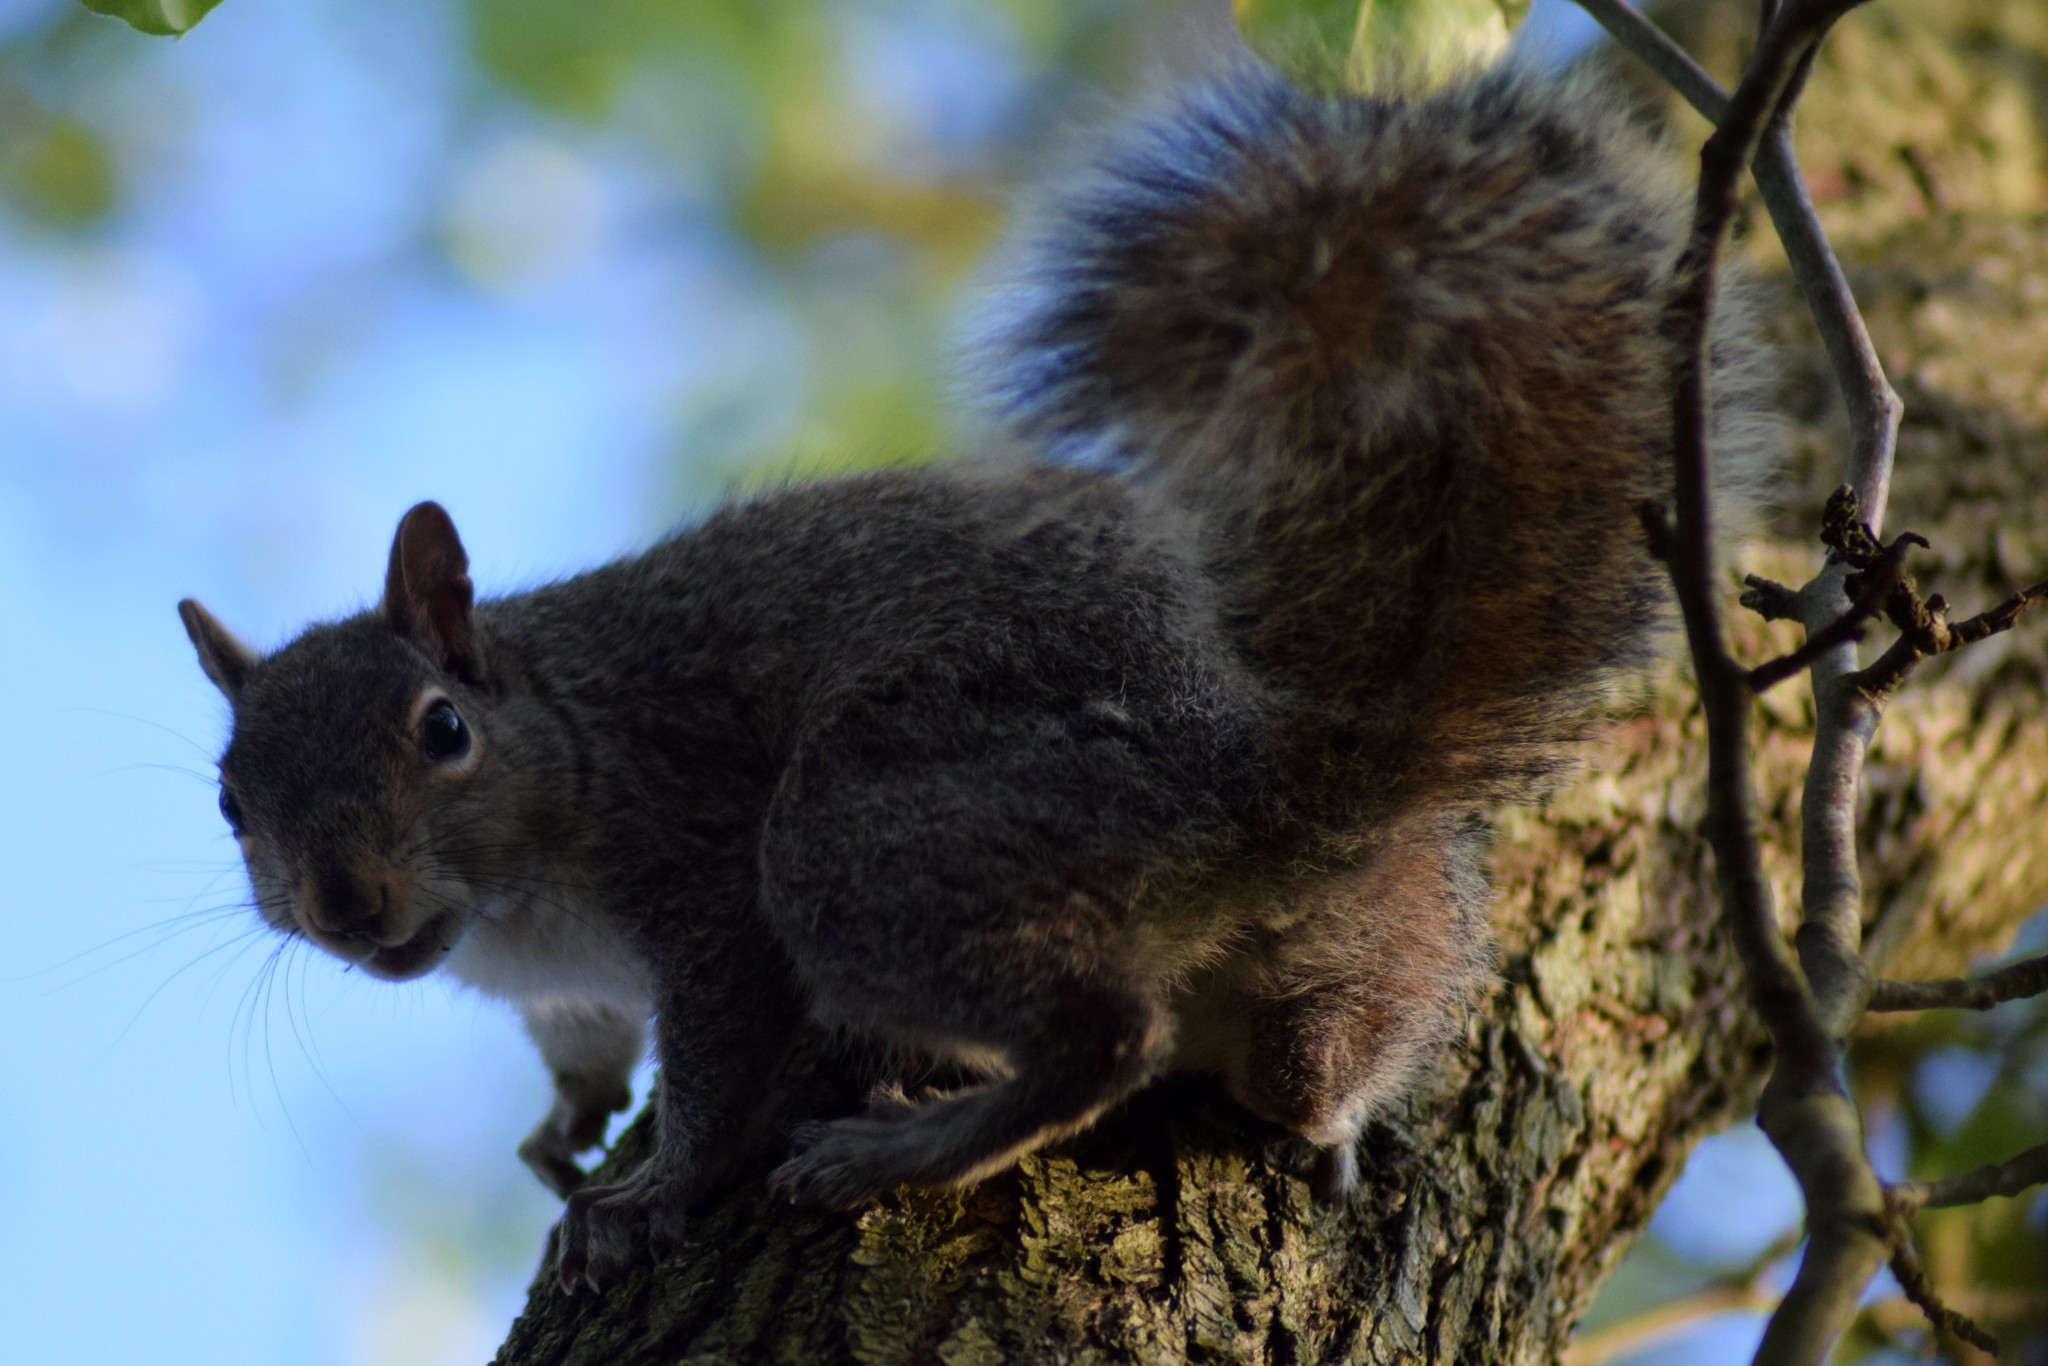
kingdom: Animalia
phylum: Chordata
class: Mammalia
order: Rodentia
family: Sciuridae
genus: Sciurus
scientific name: Sciurus carolinensis
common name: Eastern gray squirrel
